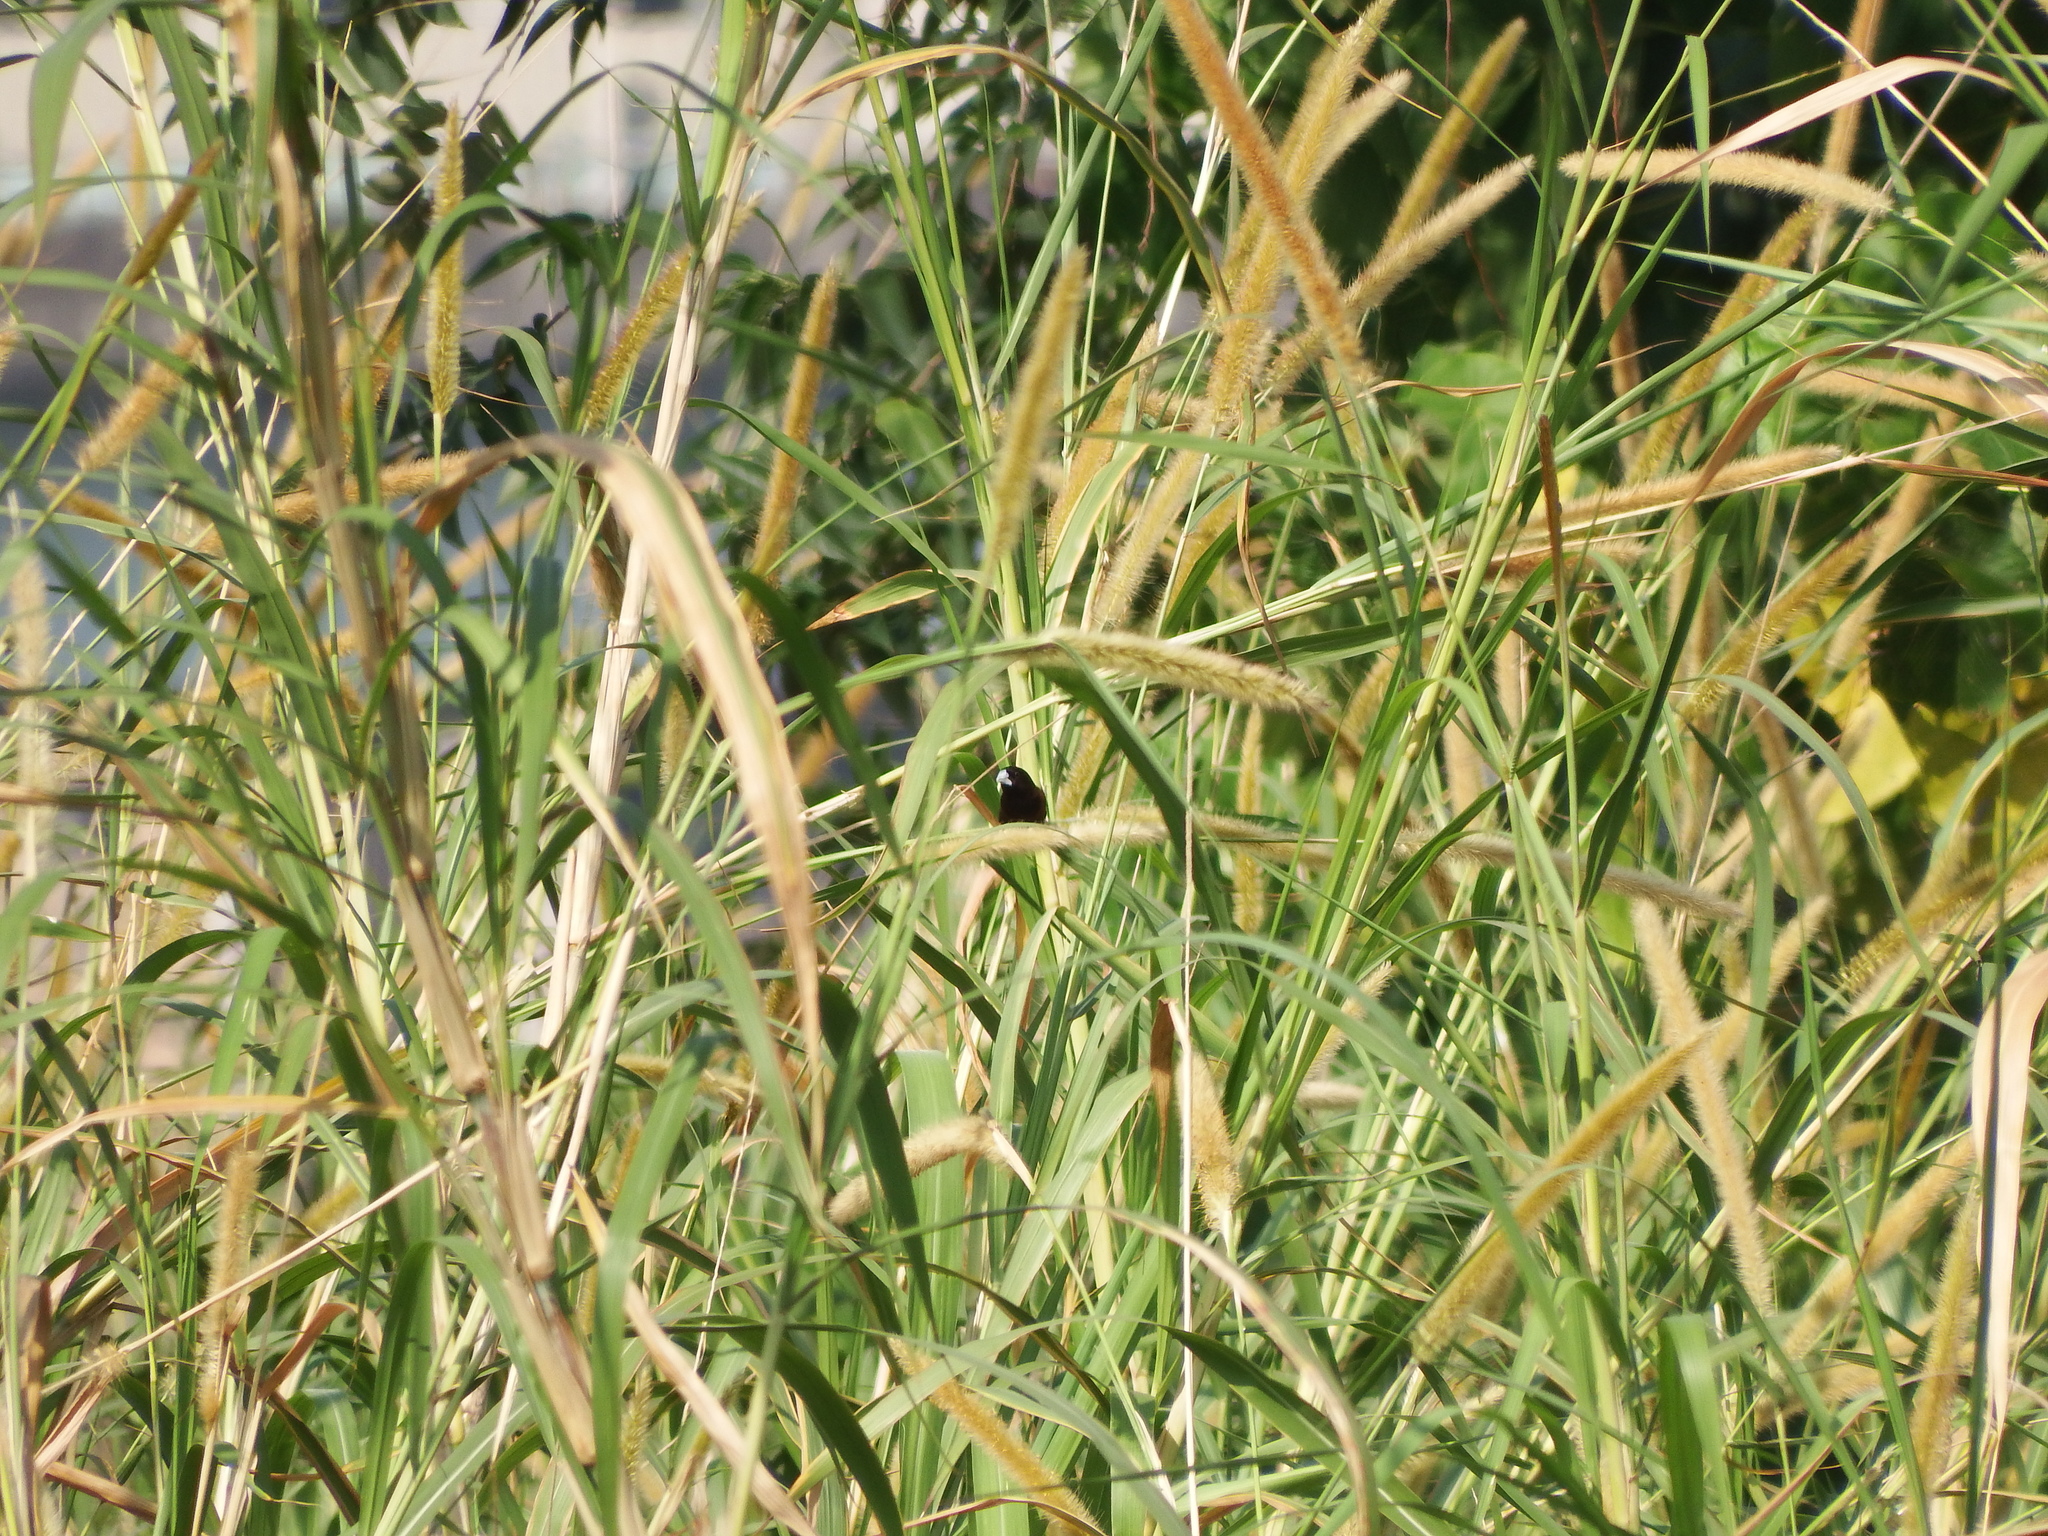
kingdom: Animalia
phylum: Chordata
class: Aves
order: Passeriformes
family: Estrildidae
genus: Lonchura
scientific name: Lonchura atricapilla
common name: Chestnut munia
